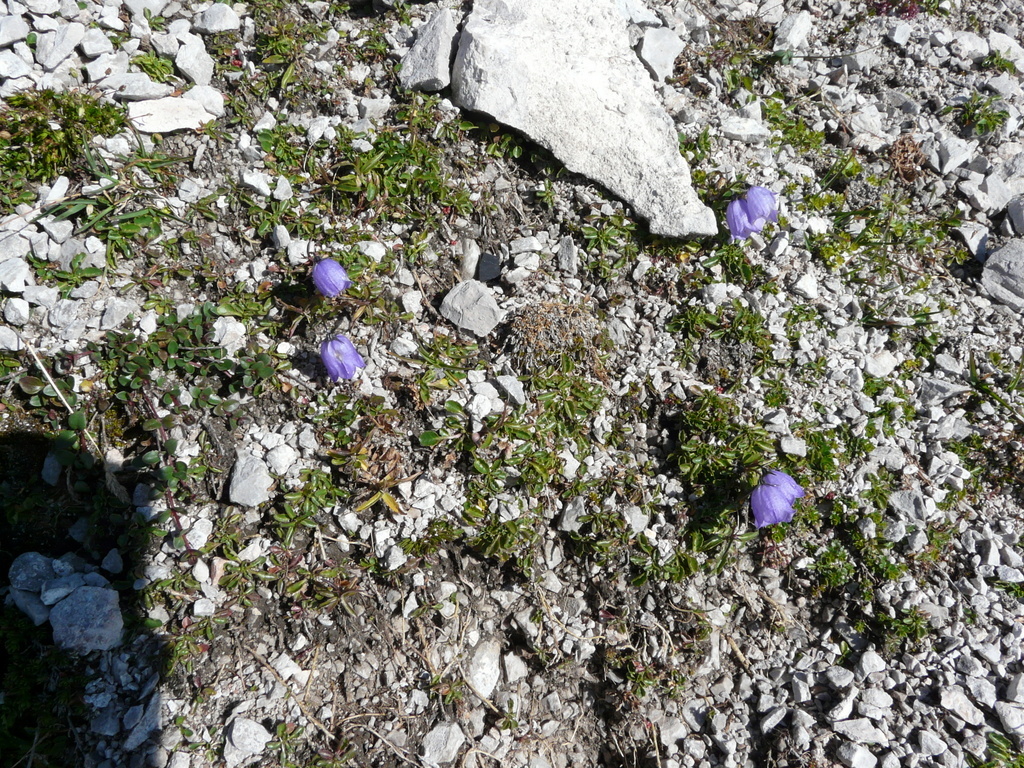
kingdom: Plantae
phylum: Tracheophyta
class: Magnoliopsida
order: Asterales
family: Campanulaceae
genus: Campanula
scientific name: Campanula cochleariifolia
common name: Fairies'-thimbles
